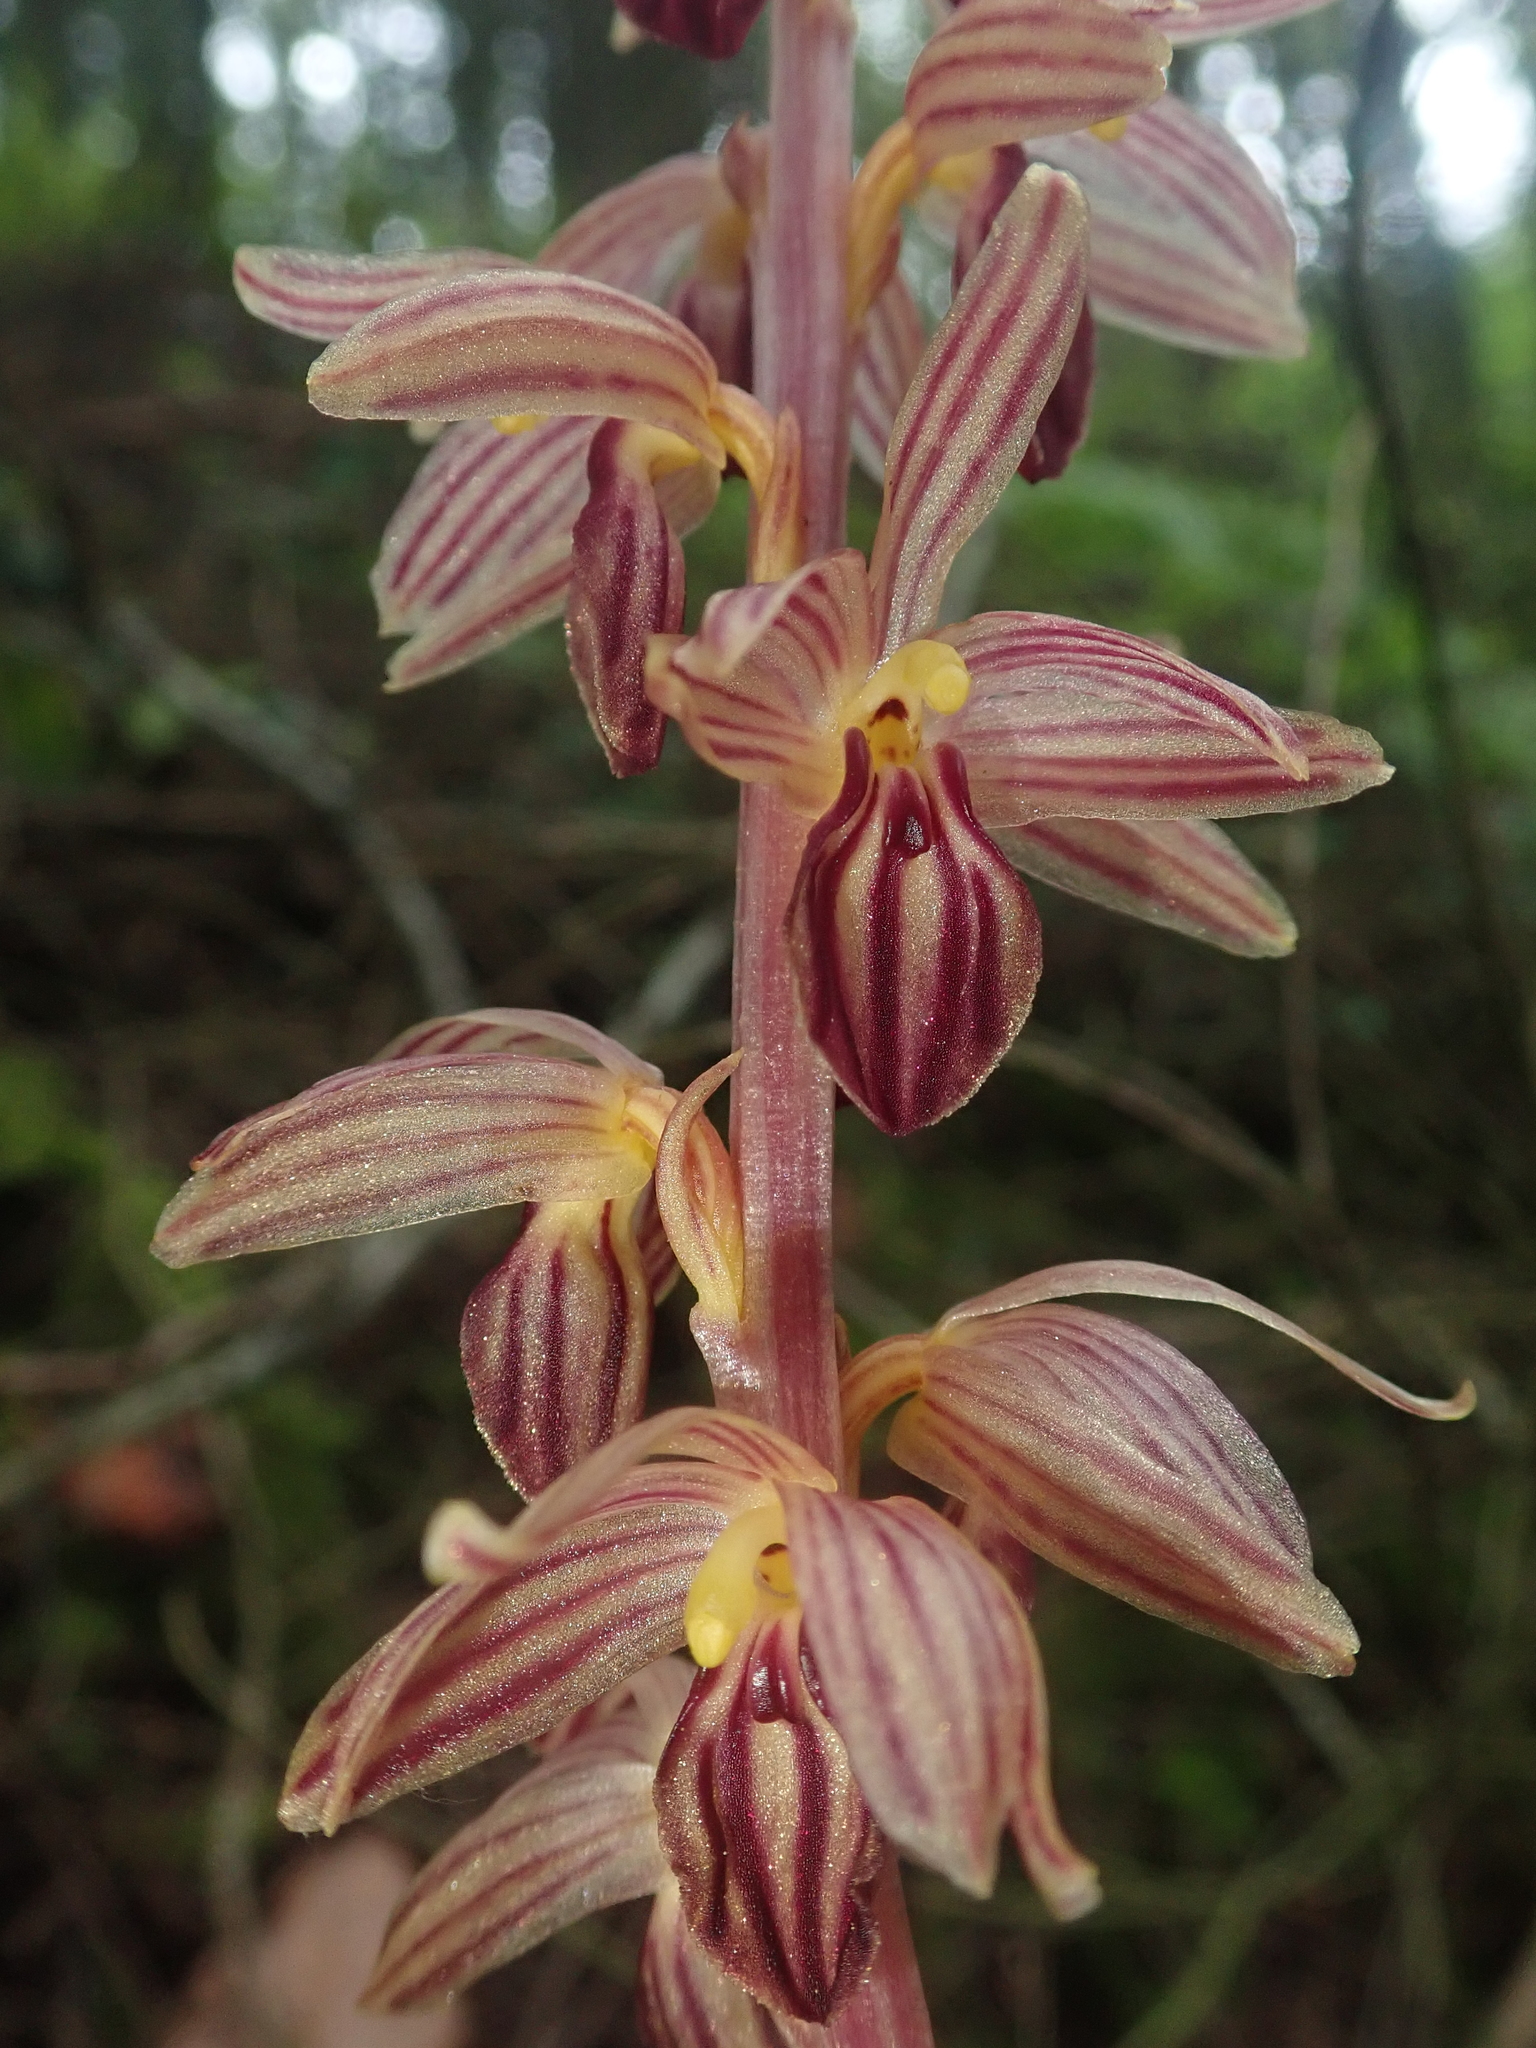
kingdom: Plantae
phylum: Tracheophyta
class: Liliopsida
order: Asparagales
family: Orchidaceae
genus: Corallorhiza
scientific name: Corallorhiza striata
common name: Hooded coralroot
